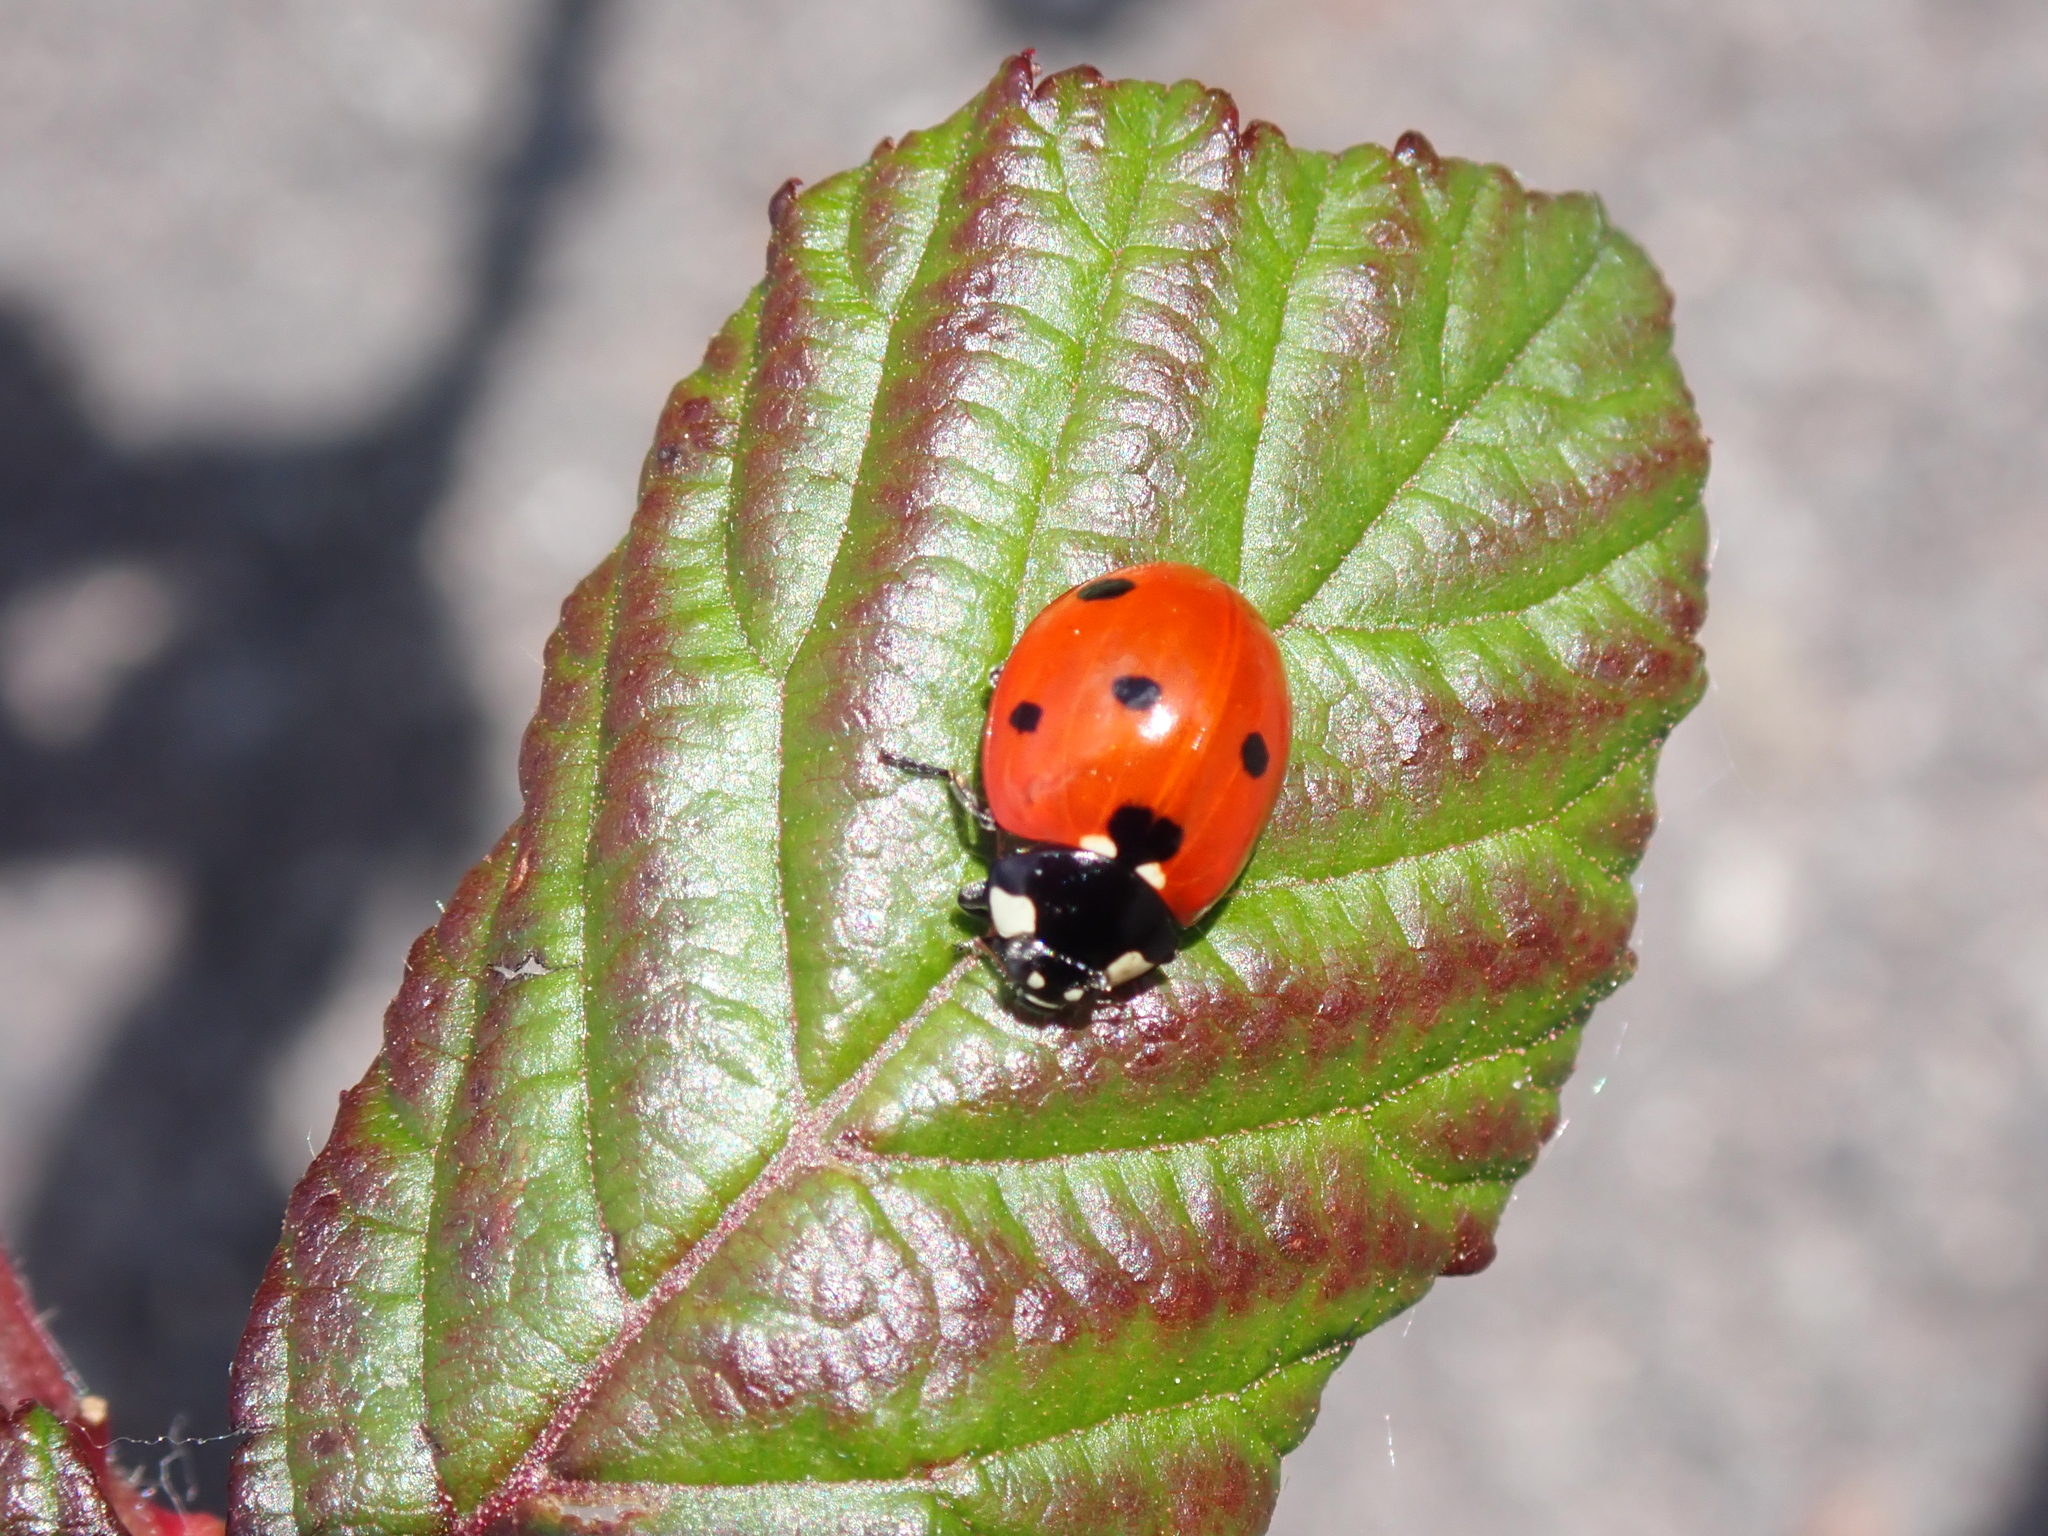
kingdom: Animalia
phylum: Arthropoda
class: Insecta
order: Coleoptera
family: Coccinellidae
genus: Coccinella
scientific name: Coccinella septempunctata
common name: Sevenspotted lady beetle
